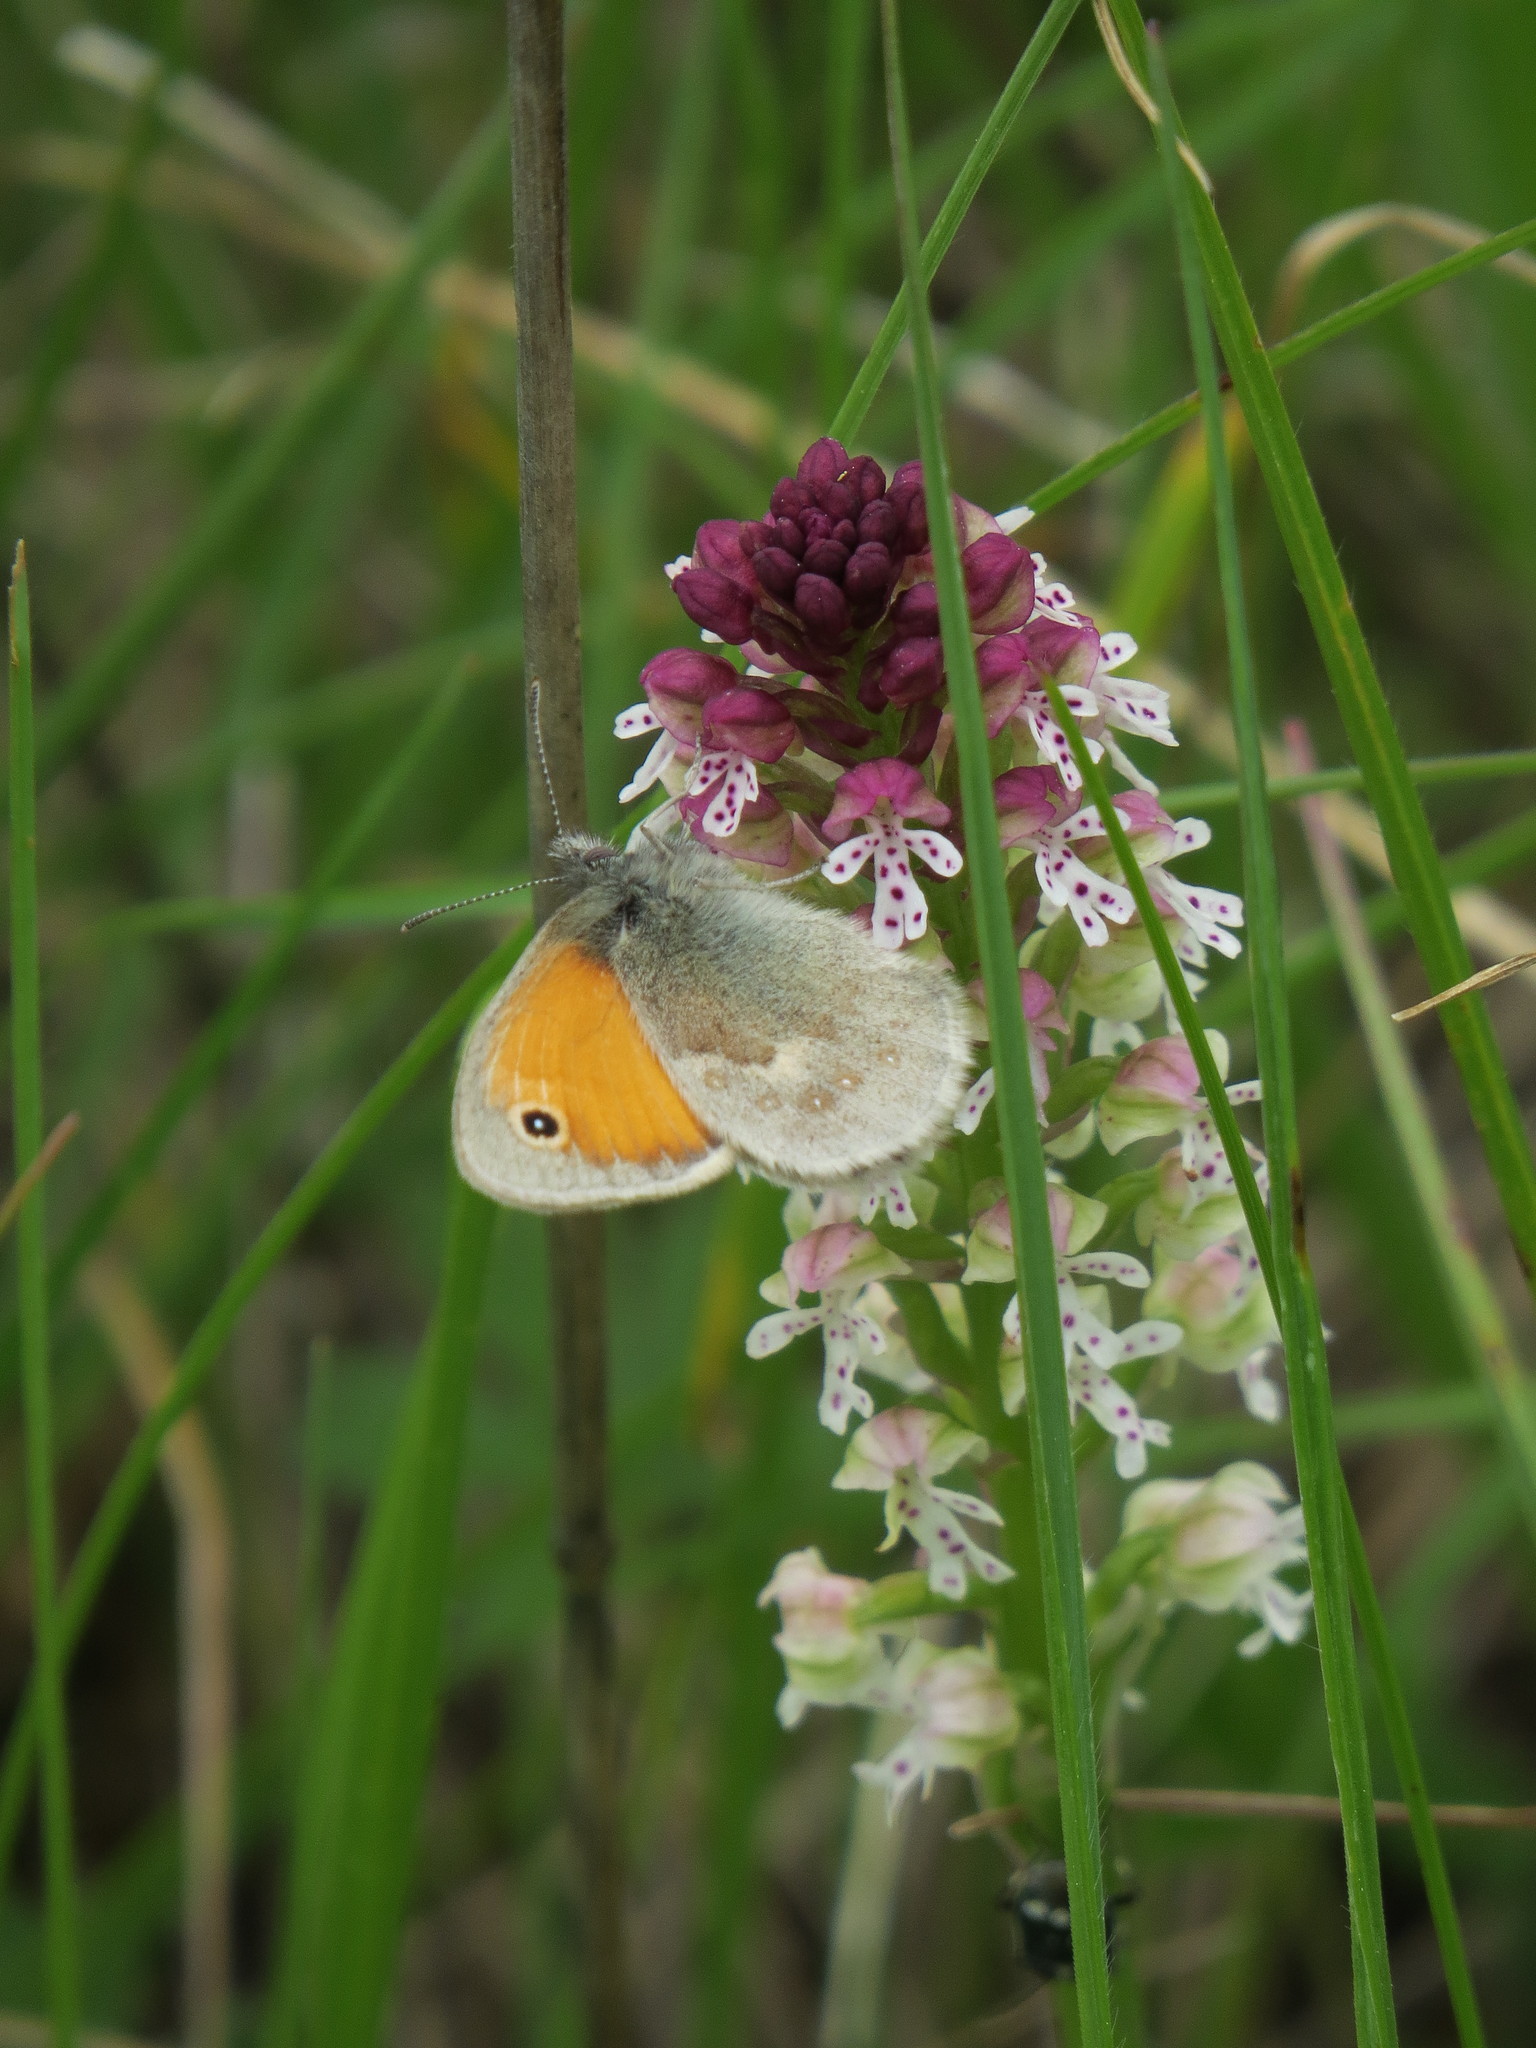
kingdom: Plantae
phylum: Tracheophyta
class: Liliopsida
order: Asparagales
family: Orchidaceae
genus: Neotinea
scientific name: Neotinea ustulata
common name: Burnt orchid
